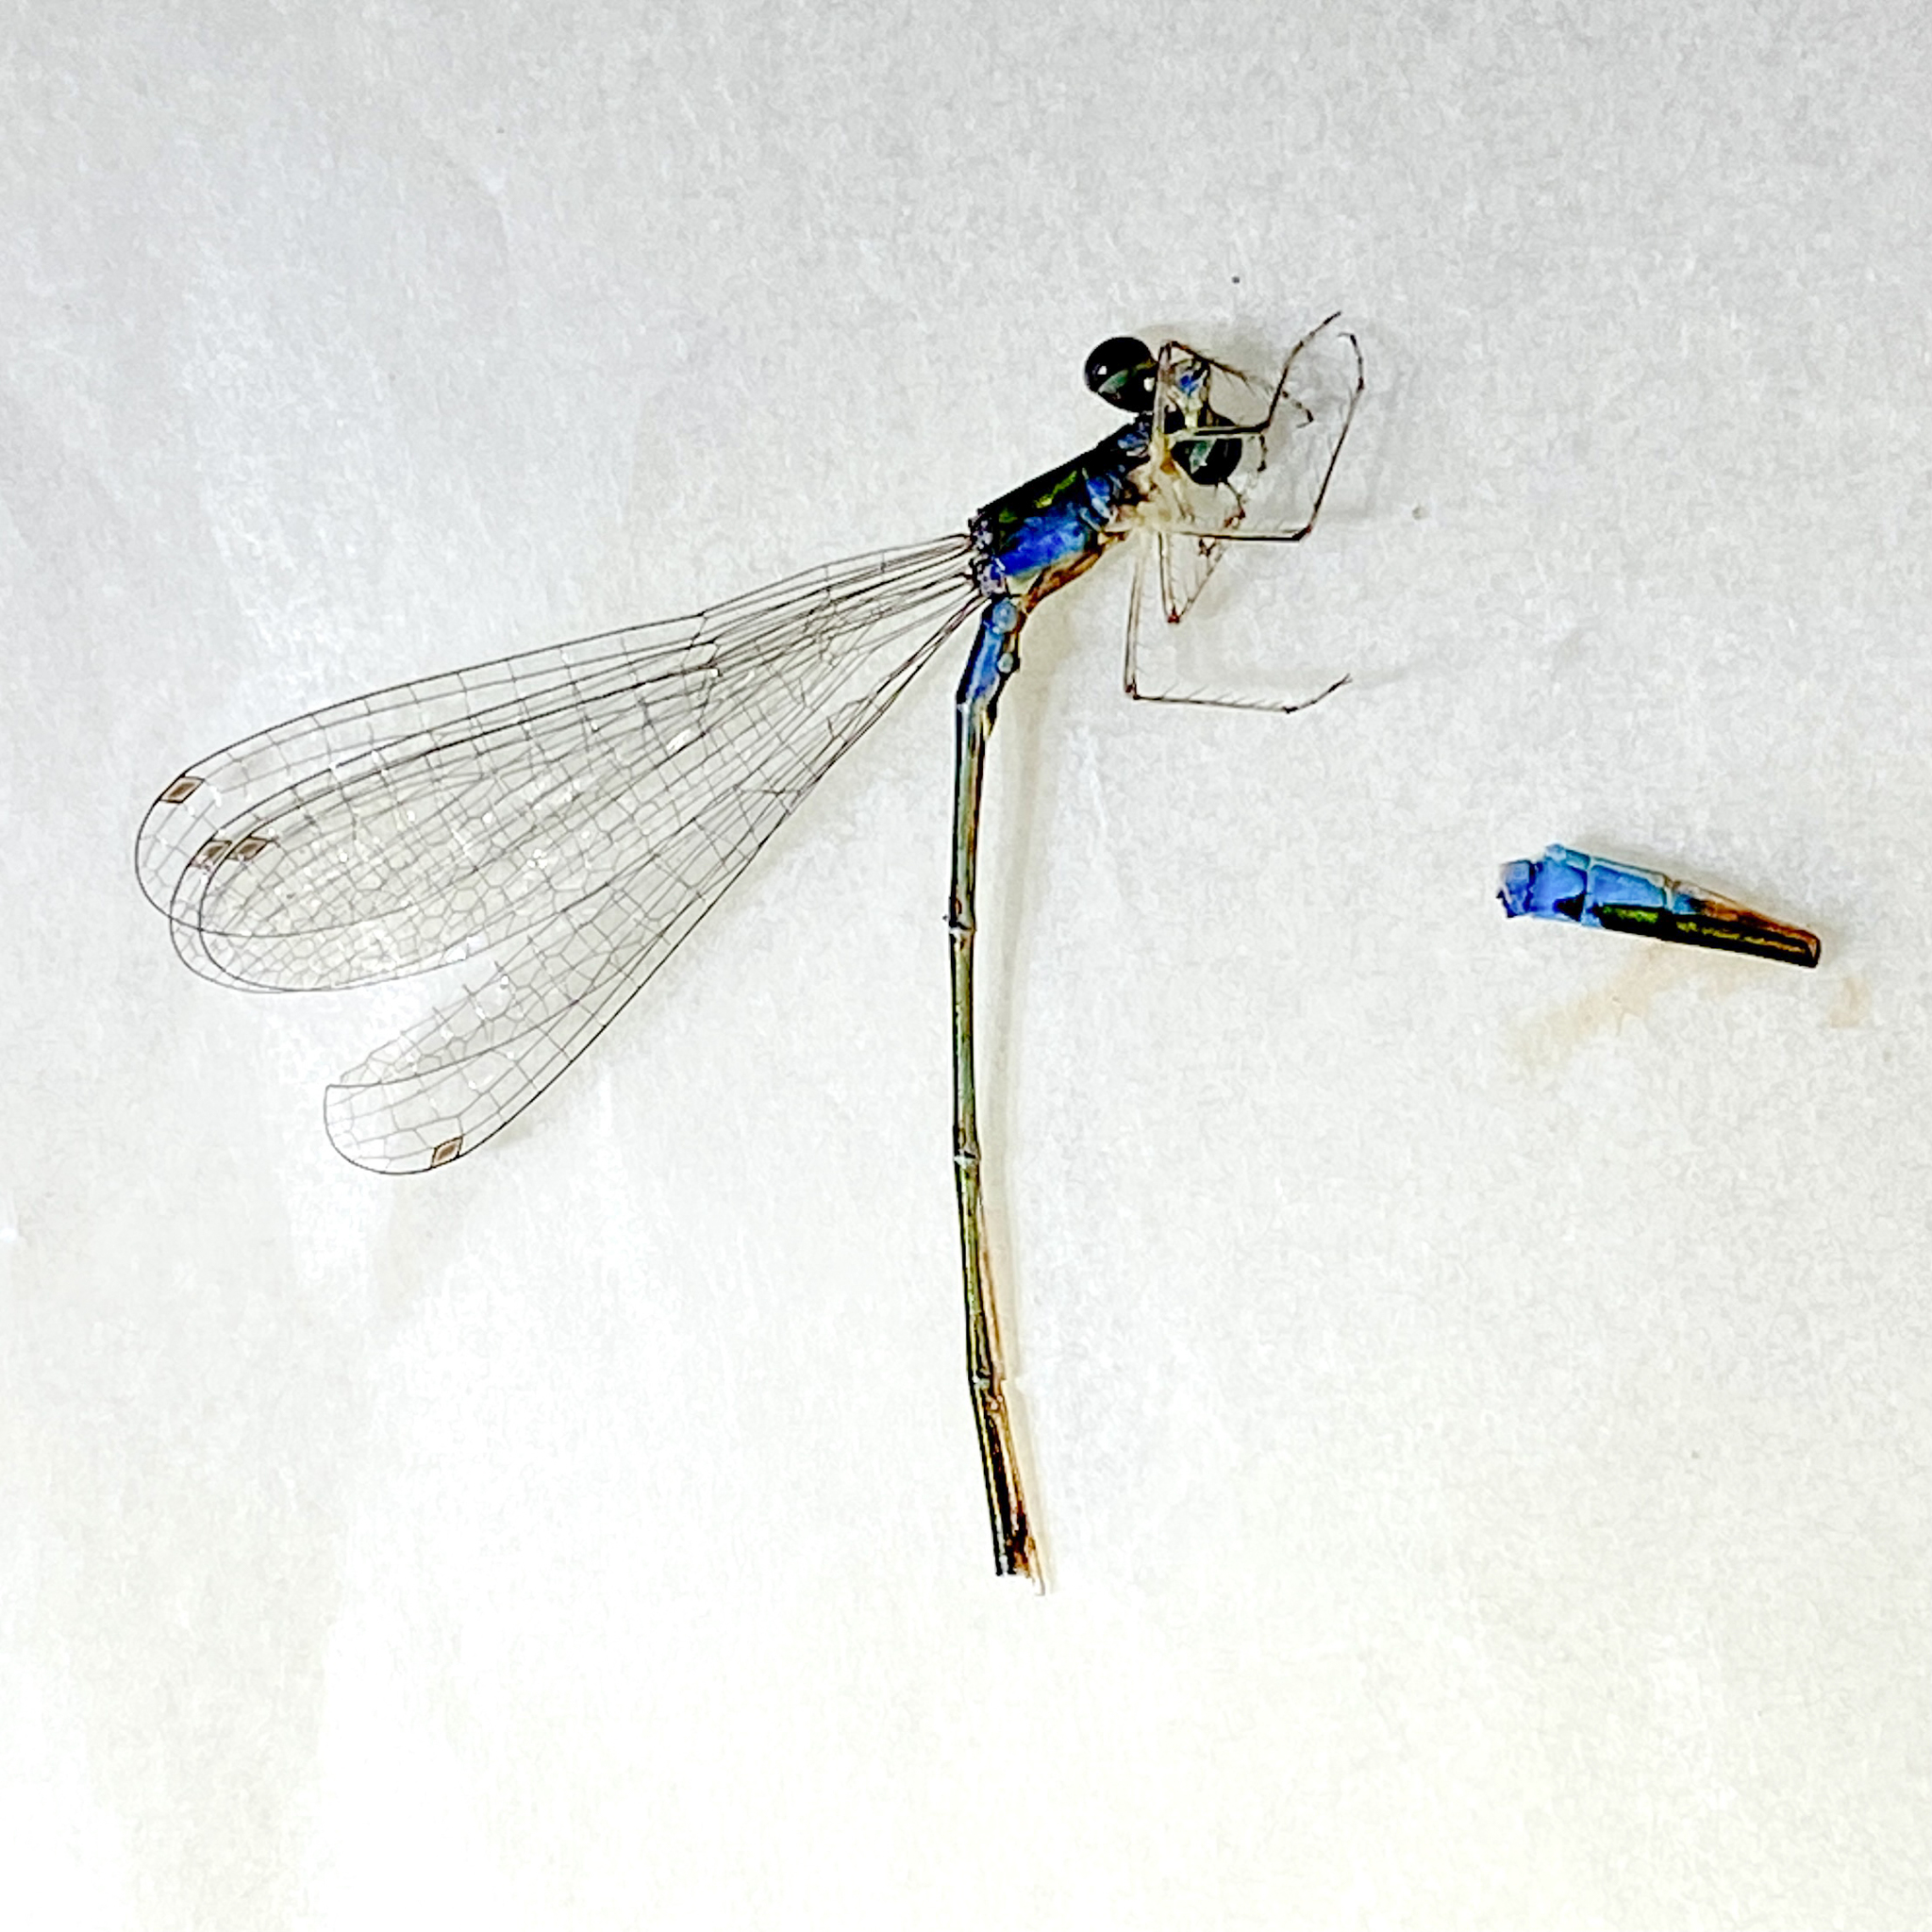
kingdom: Animalia
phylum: Arthropoda
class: Insecta
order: Odonata
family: Coenagrionidae
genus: Nehalennia
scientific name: Nehalennia irene
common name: Sedge sprite
